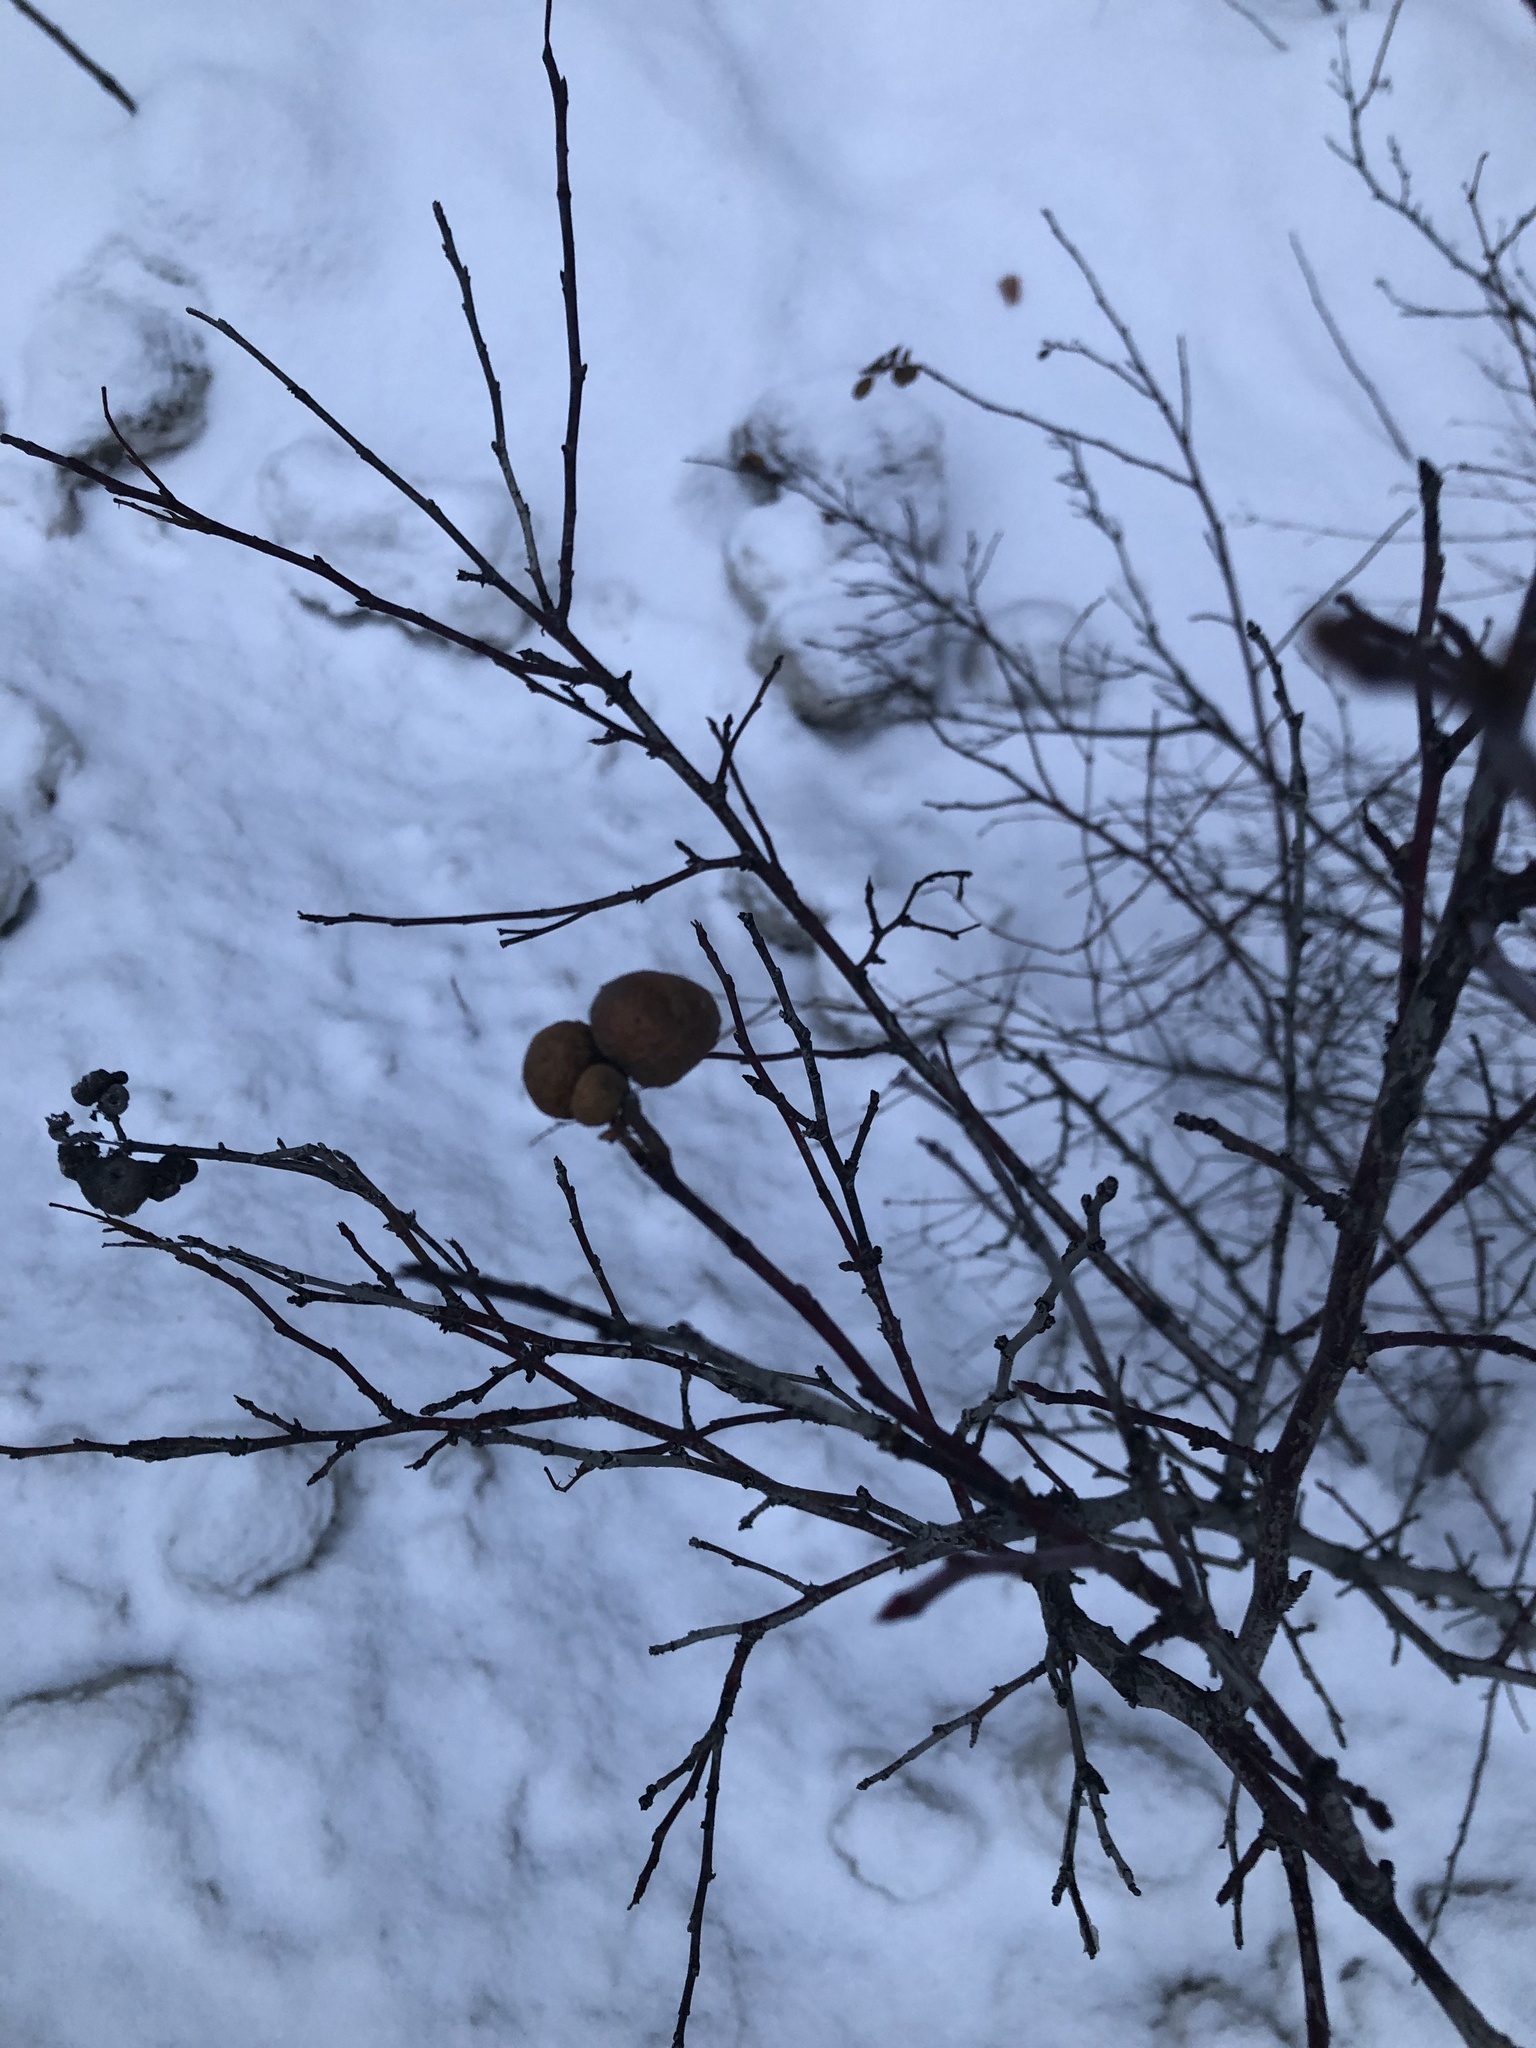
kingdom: Animalia
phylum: Arthropoda
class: Insecta
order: Hymenoptera
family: Cynipidae
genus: Diplolepis
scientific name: Diplolepis variabilis
